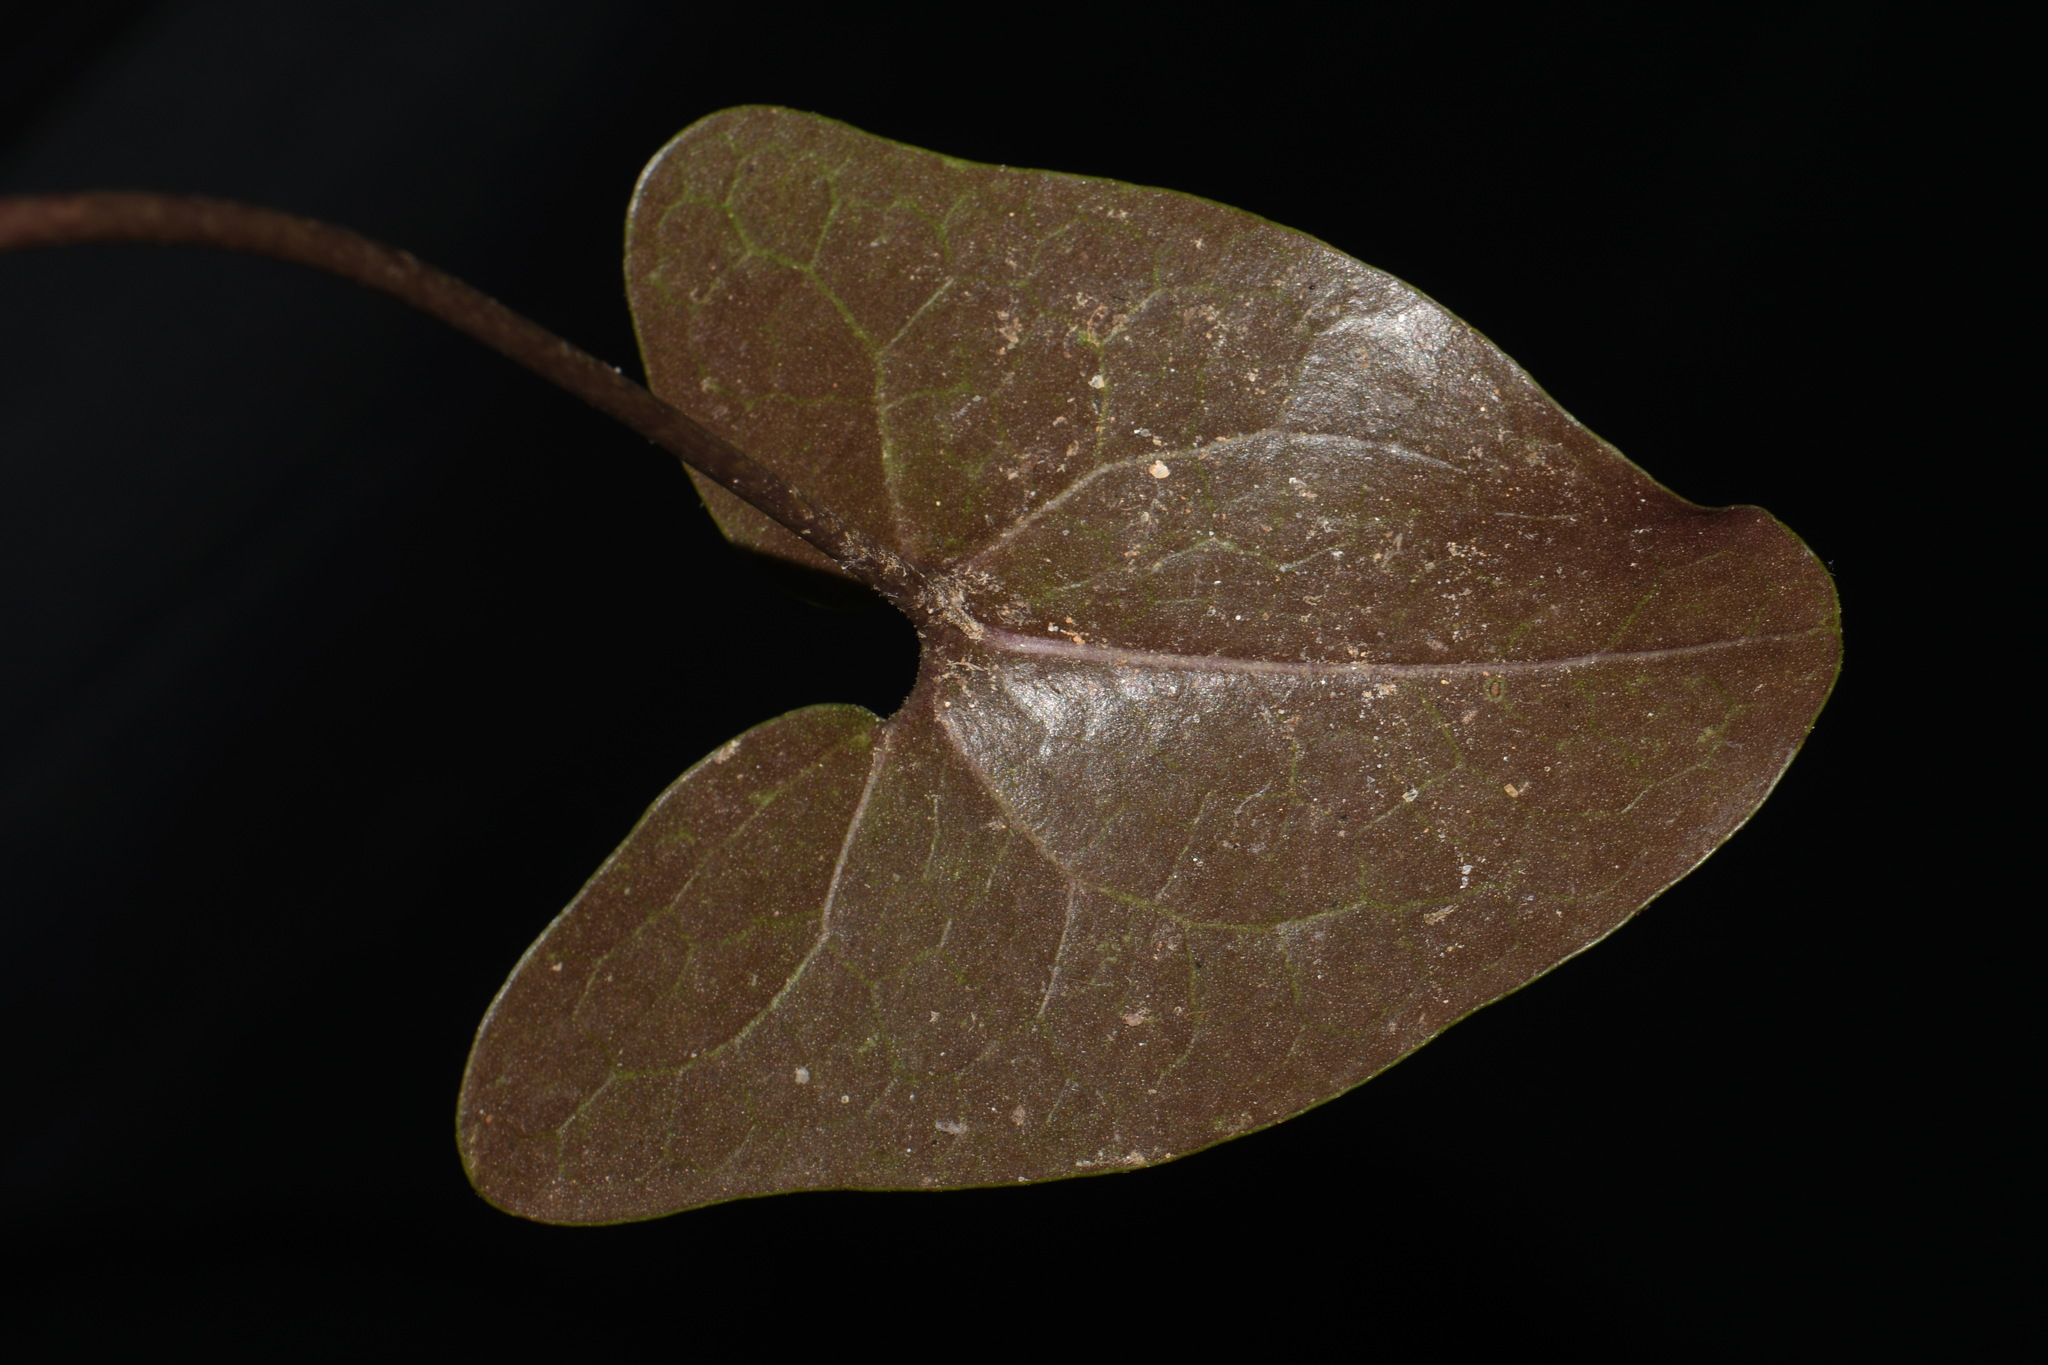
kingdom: Plantae
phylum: Tracheophyta
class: Magnoliopsida
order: Piperales
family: Aristolochiaceae
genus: Hexastylis
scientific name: Hexastylis arifolia
